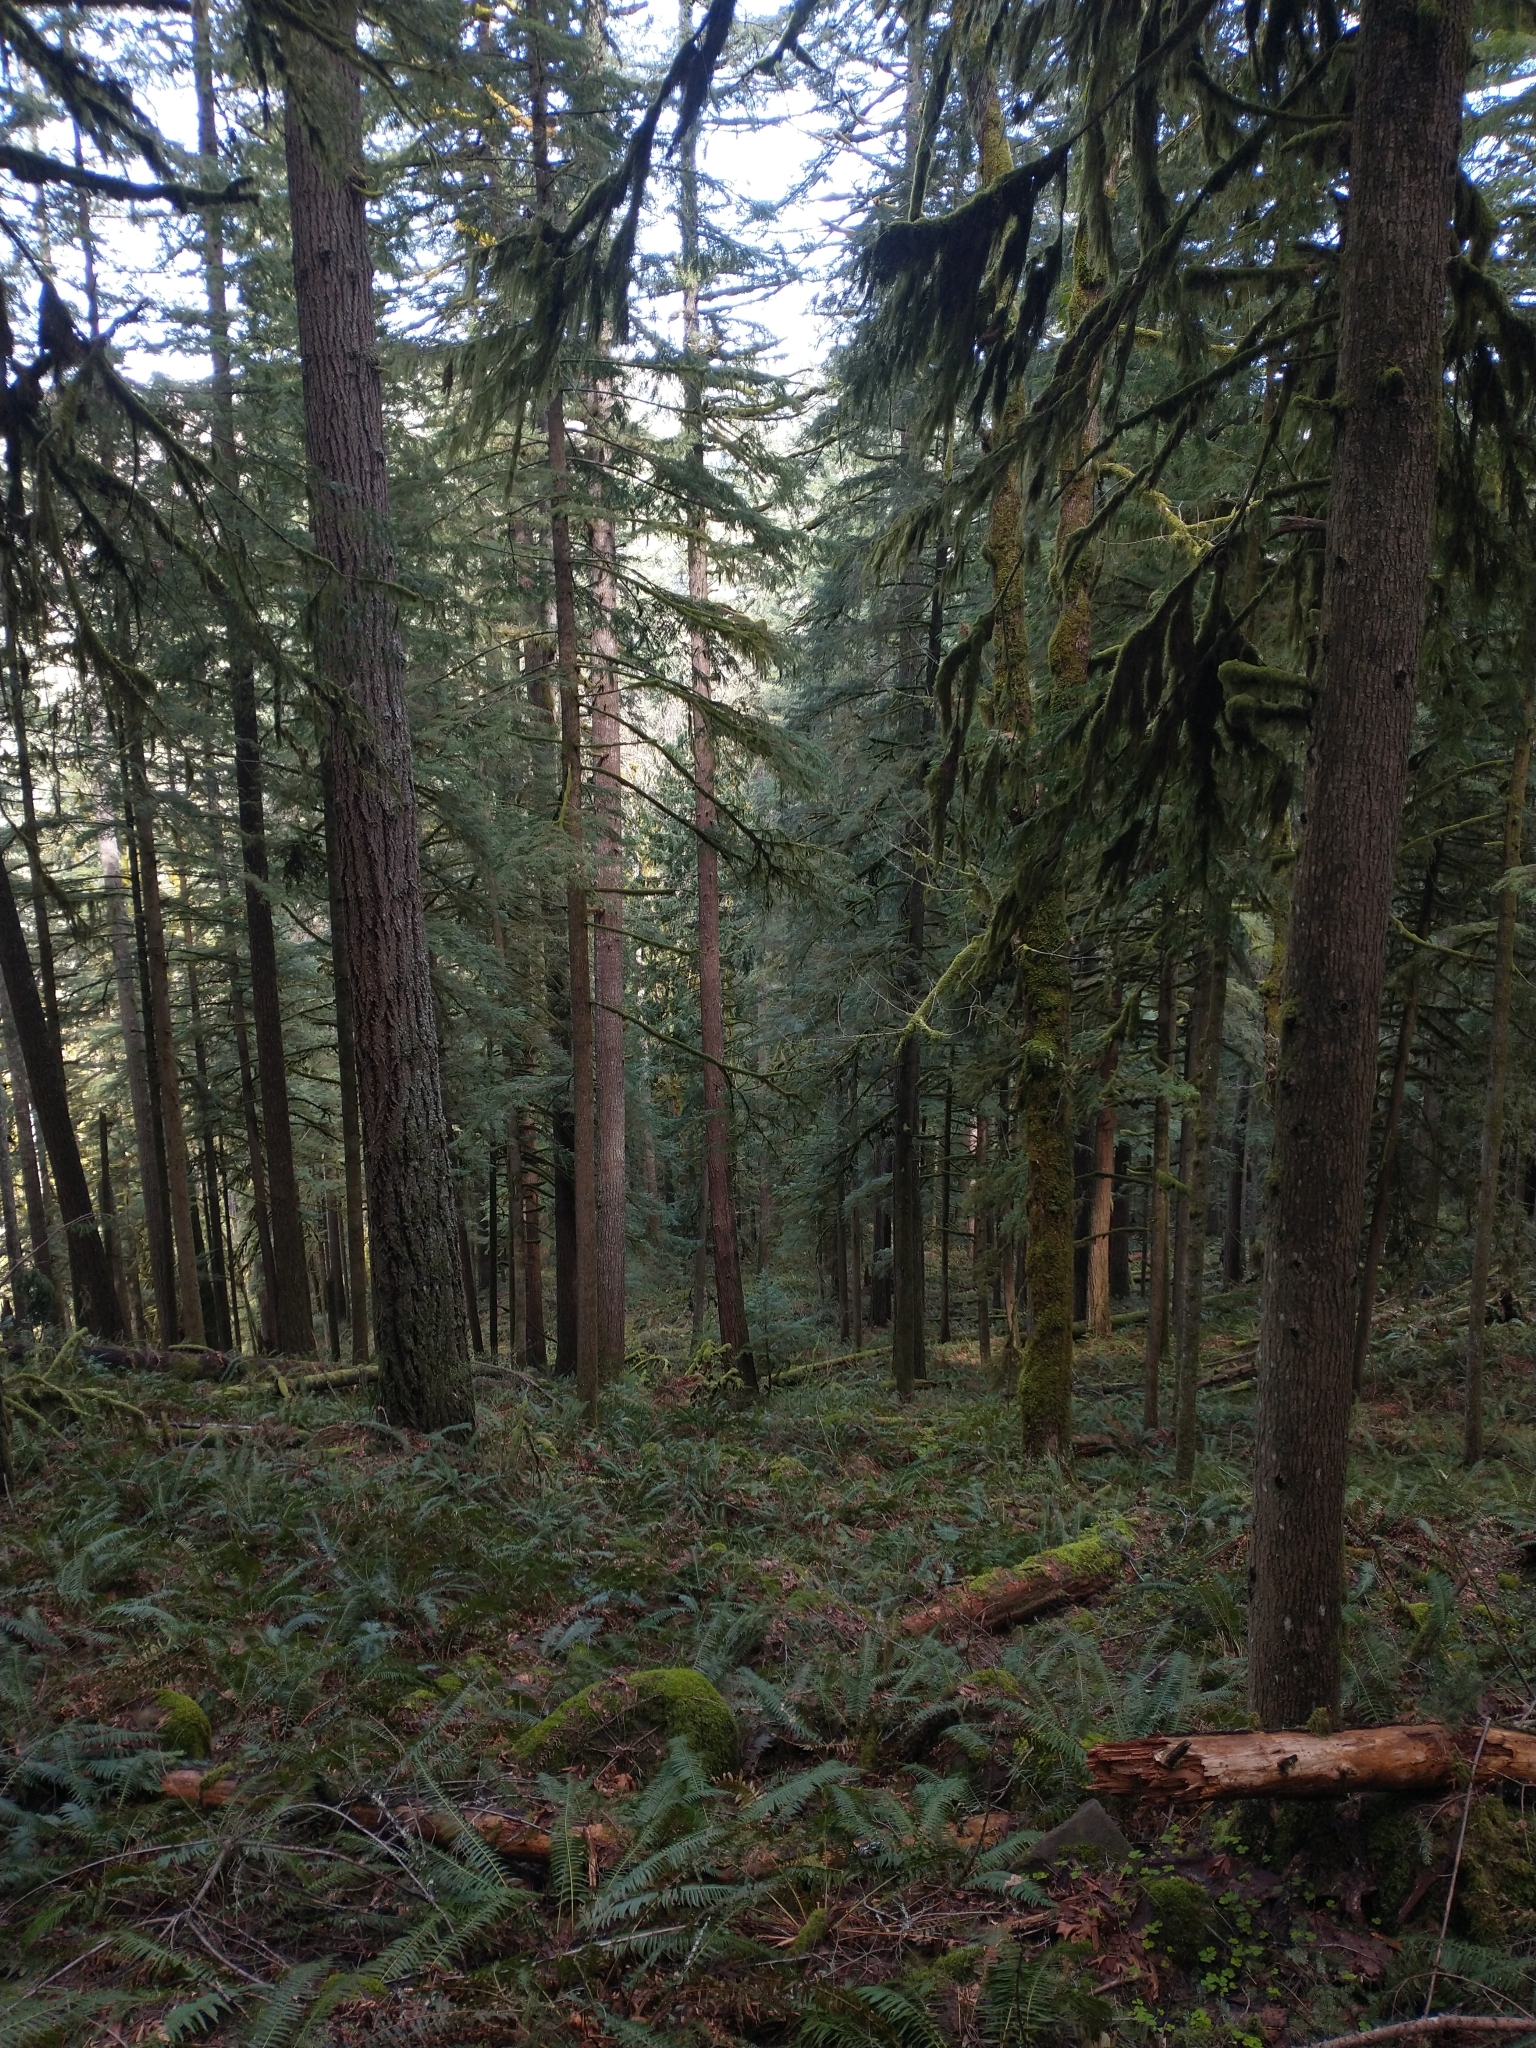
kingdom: Plantae
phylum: Tracheophyta
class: Polypodiopsida
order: Polypodiales
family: Dryopteridaceae
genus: Polystichum
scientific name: Polystichum munitum
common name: Western sword-fern
